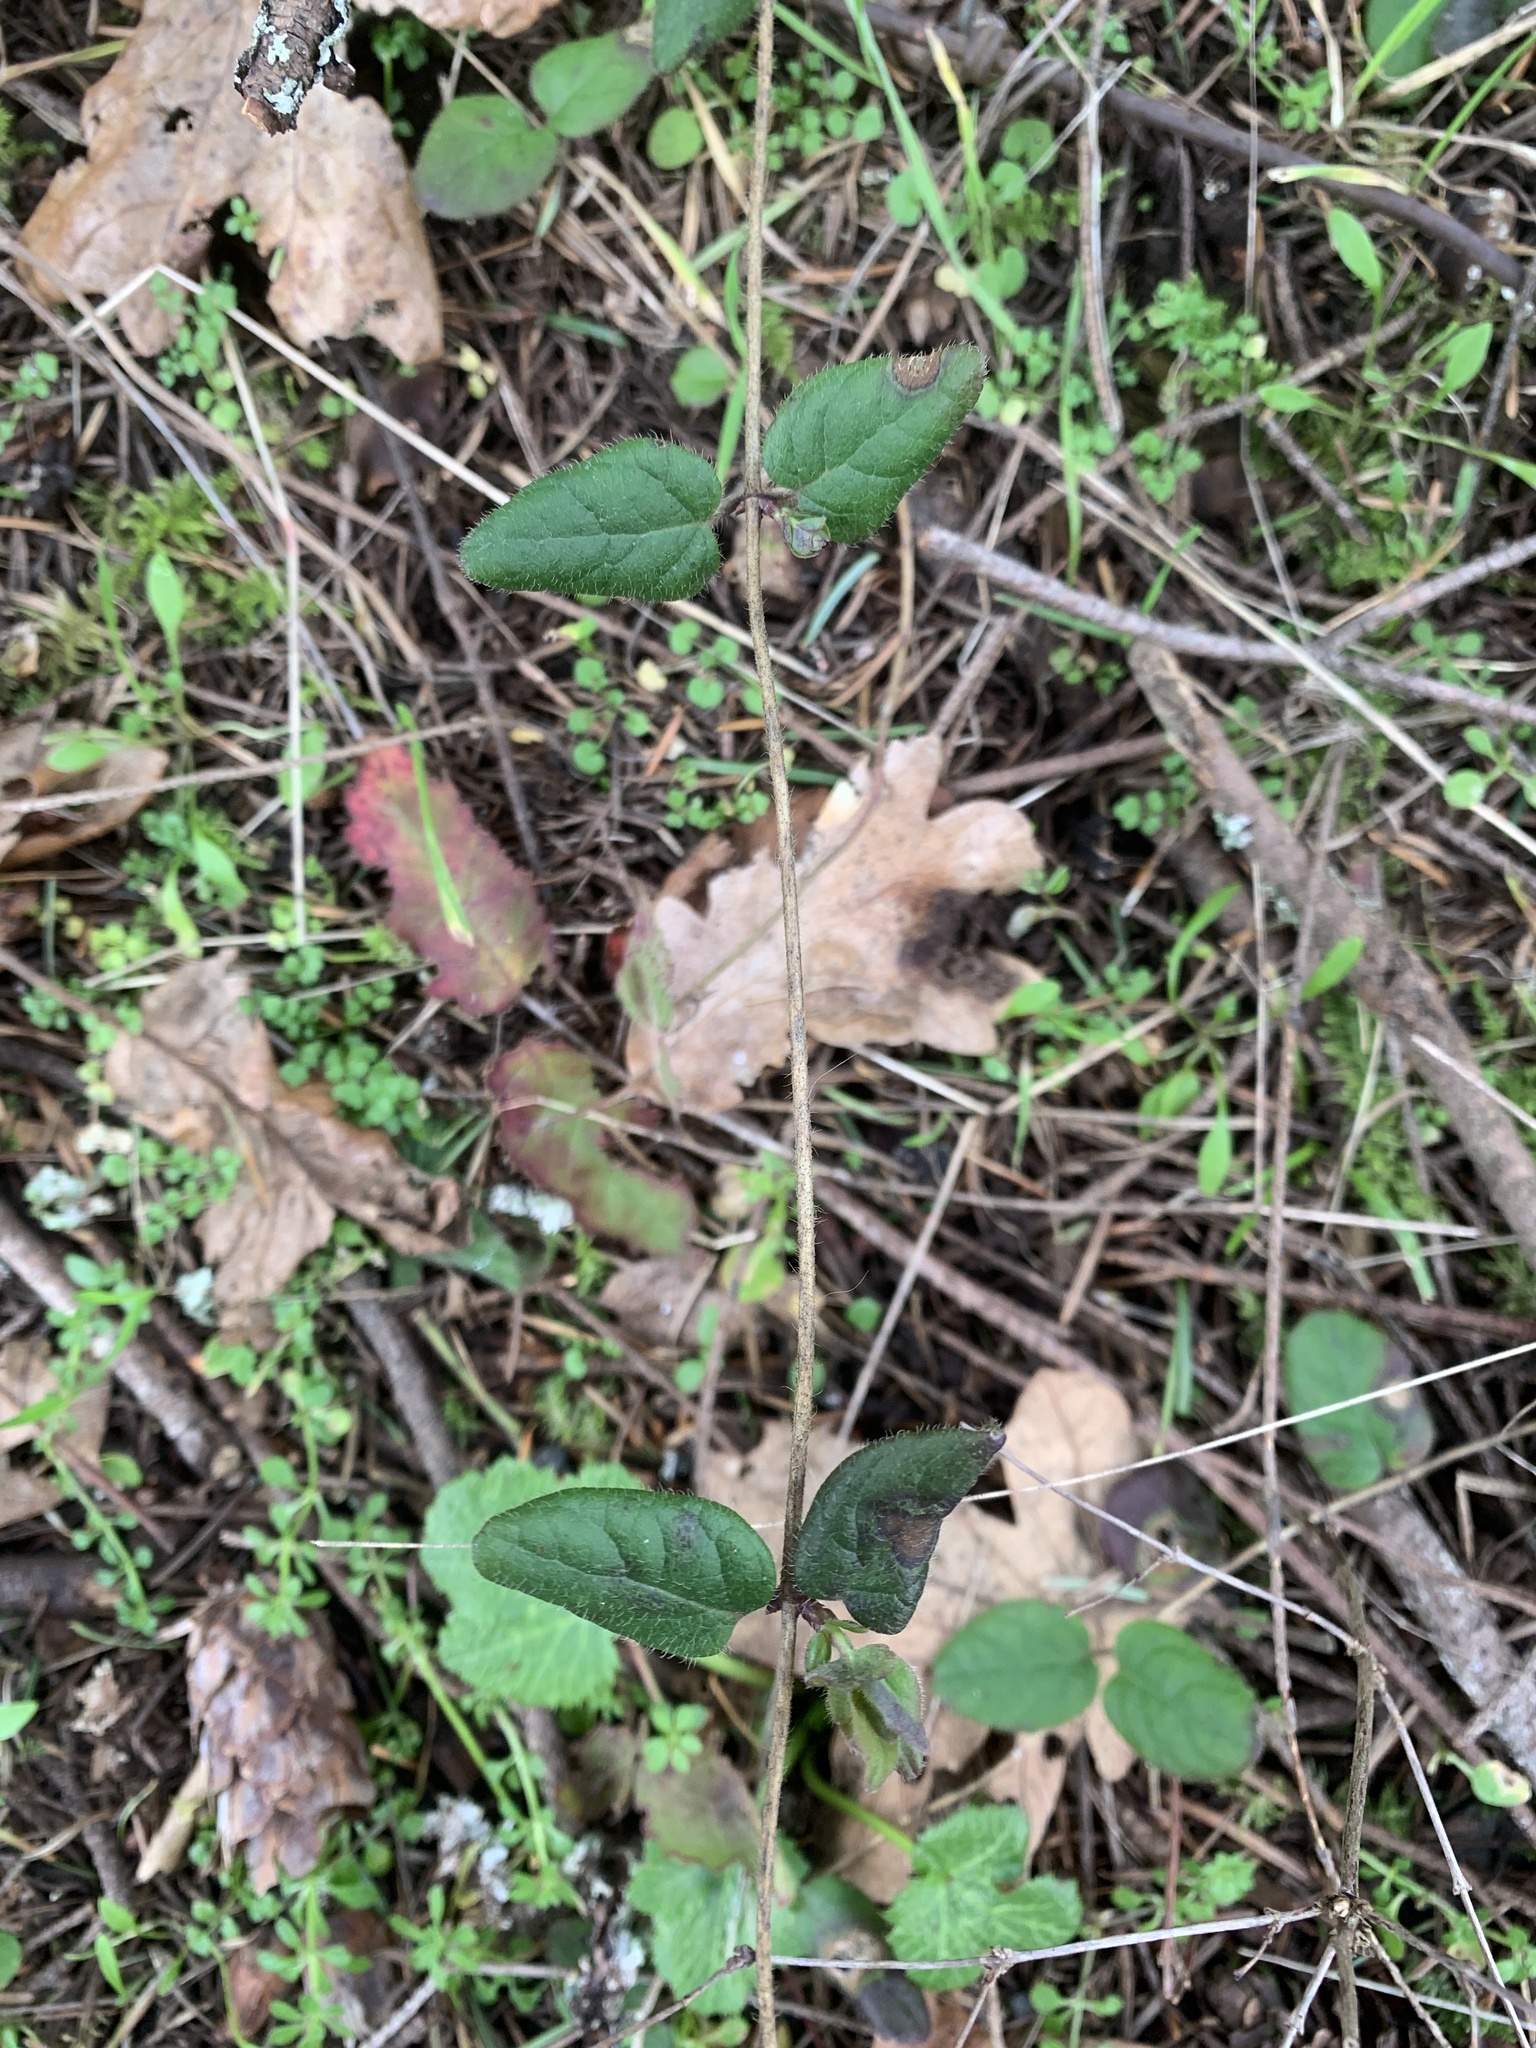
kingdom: Plantae
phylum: Tracheophyta
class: Magnoliopsida
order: Dipsacales
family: Caprifoliaceae
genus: Lonicera
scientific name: Lonicera hispidula
